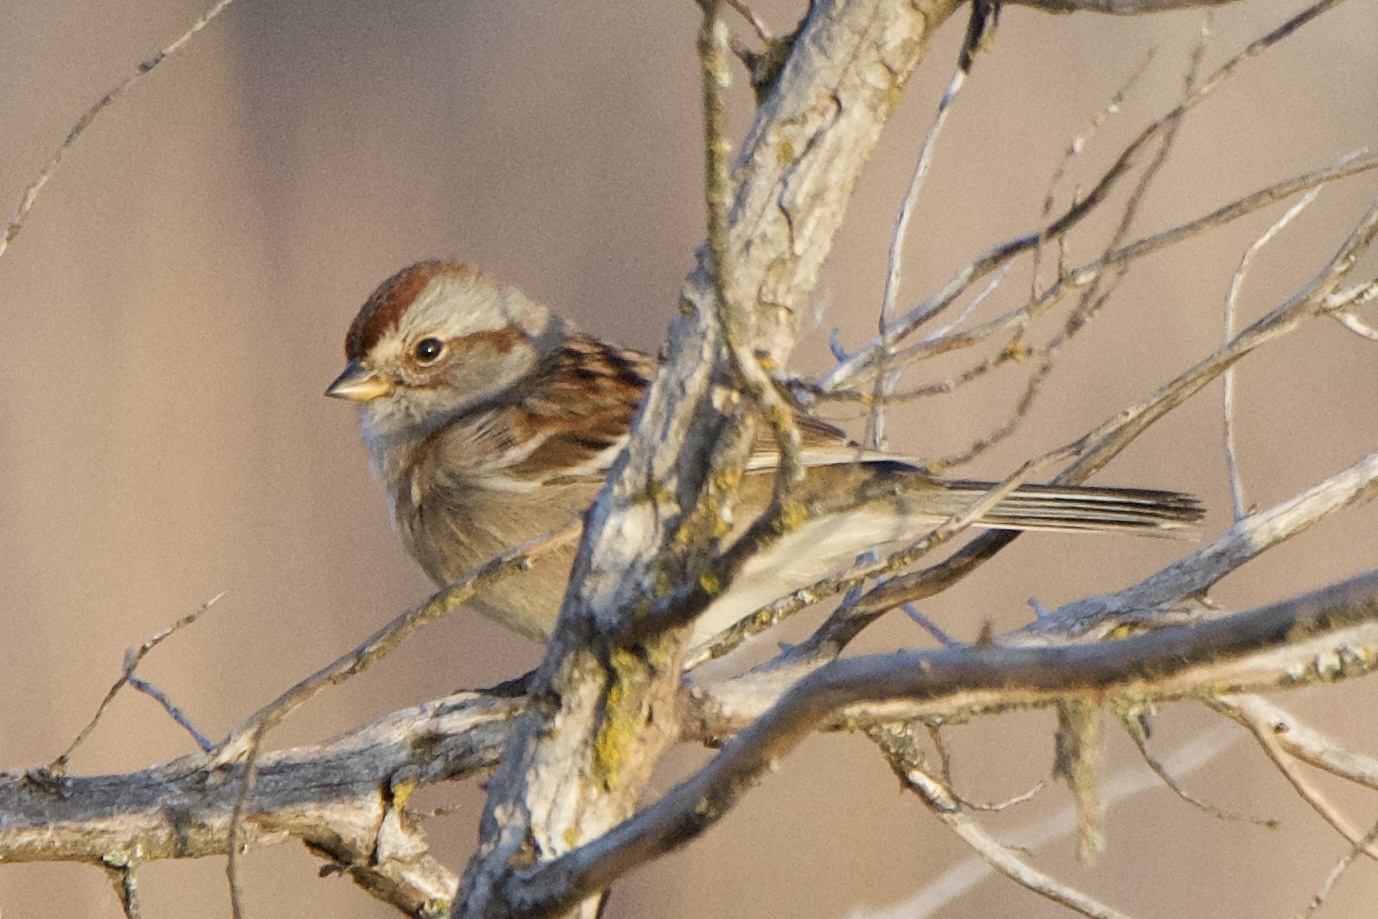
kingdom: Animalia
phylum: Chordata
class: Aves
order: Passeriformes
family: Passerellidae
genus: Spizelloides
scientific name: Spizelloides arborea
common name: American tree sparrow
